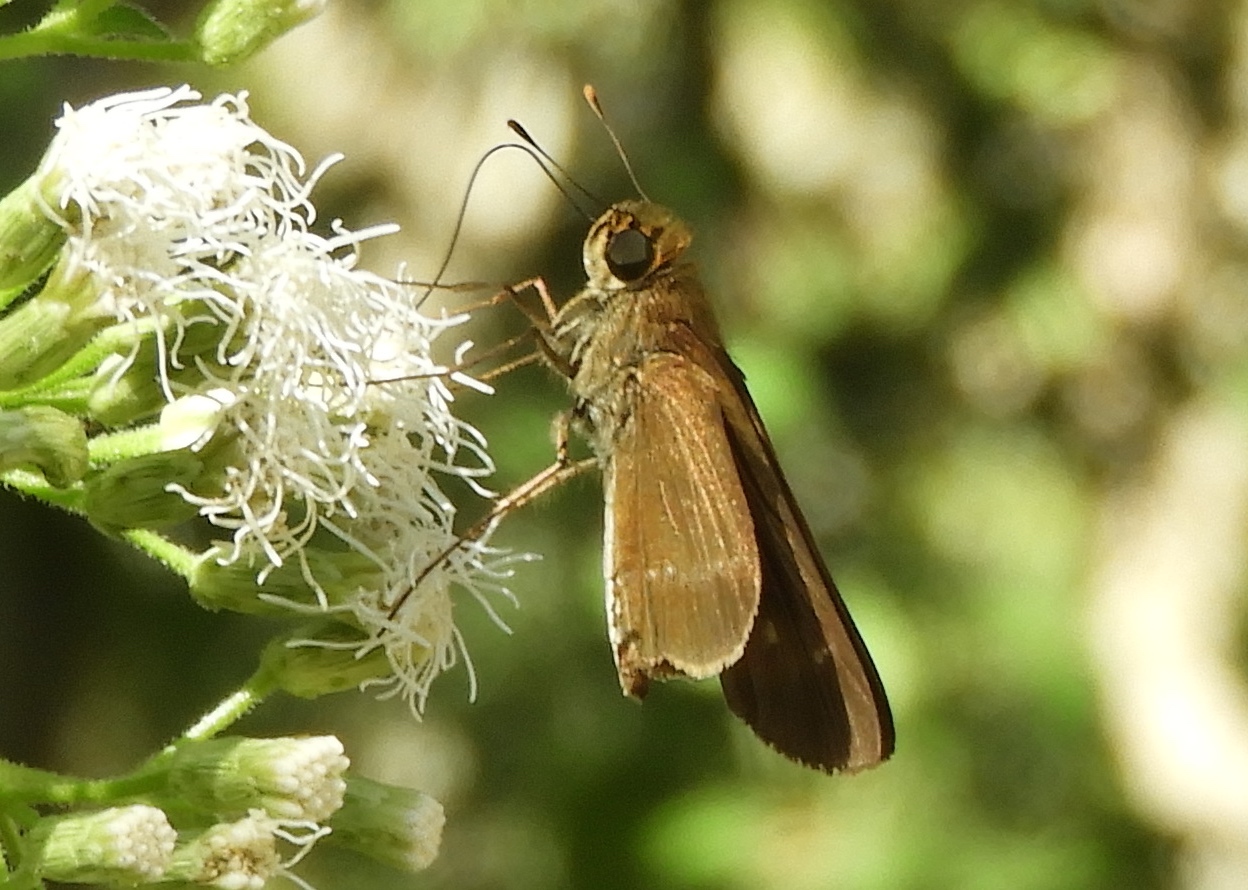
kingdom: Animalia
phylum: Arthropoda
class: Insecta
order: Lepidoptera
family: Hesperiidae
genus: Panoquina
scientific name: Panoquina ocola
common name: Ocola skipper
